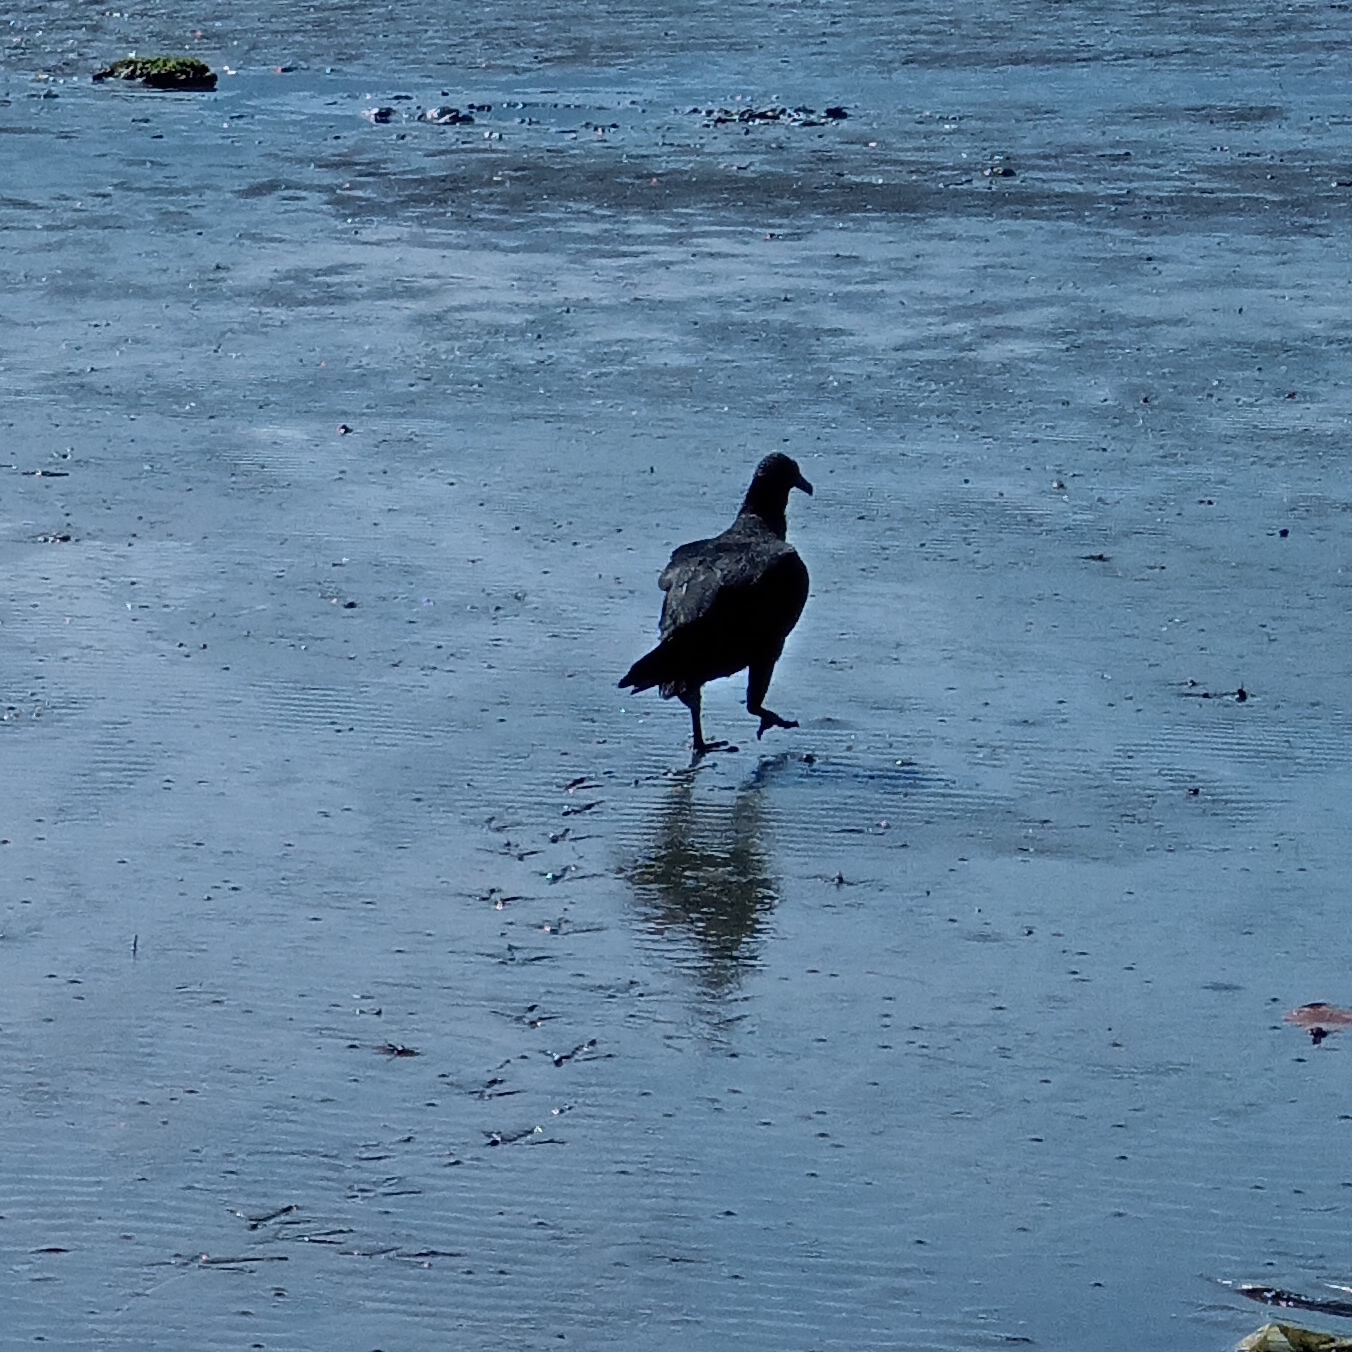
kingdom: Animalia
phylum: Chordata
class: Aves
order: Accipitriformes
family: Cathartidae
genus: Coragyps
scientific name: Coragyps atratus
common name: Black vulture
